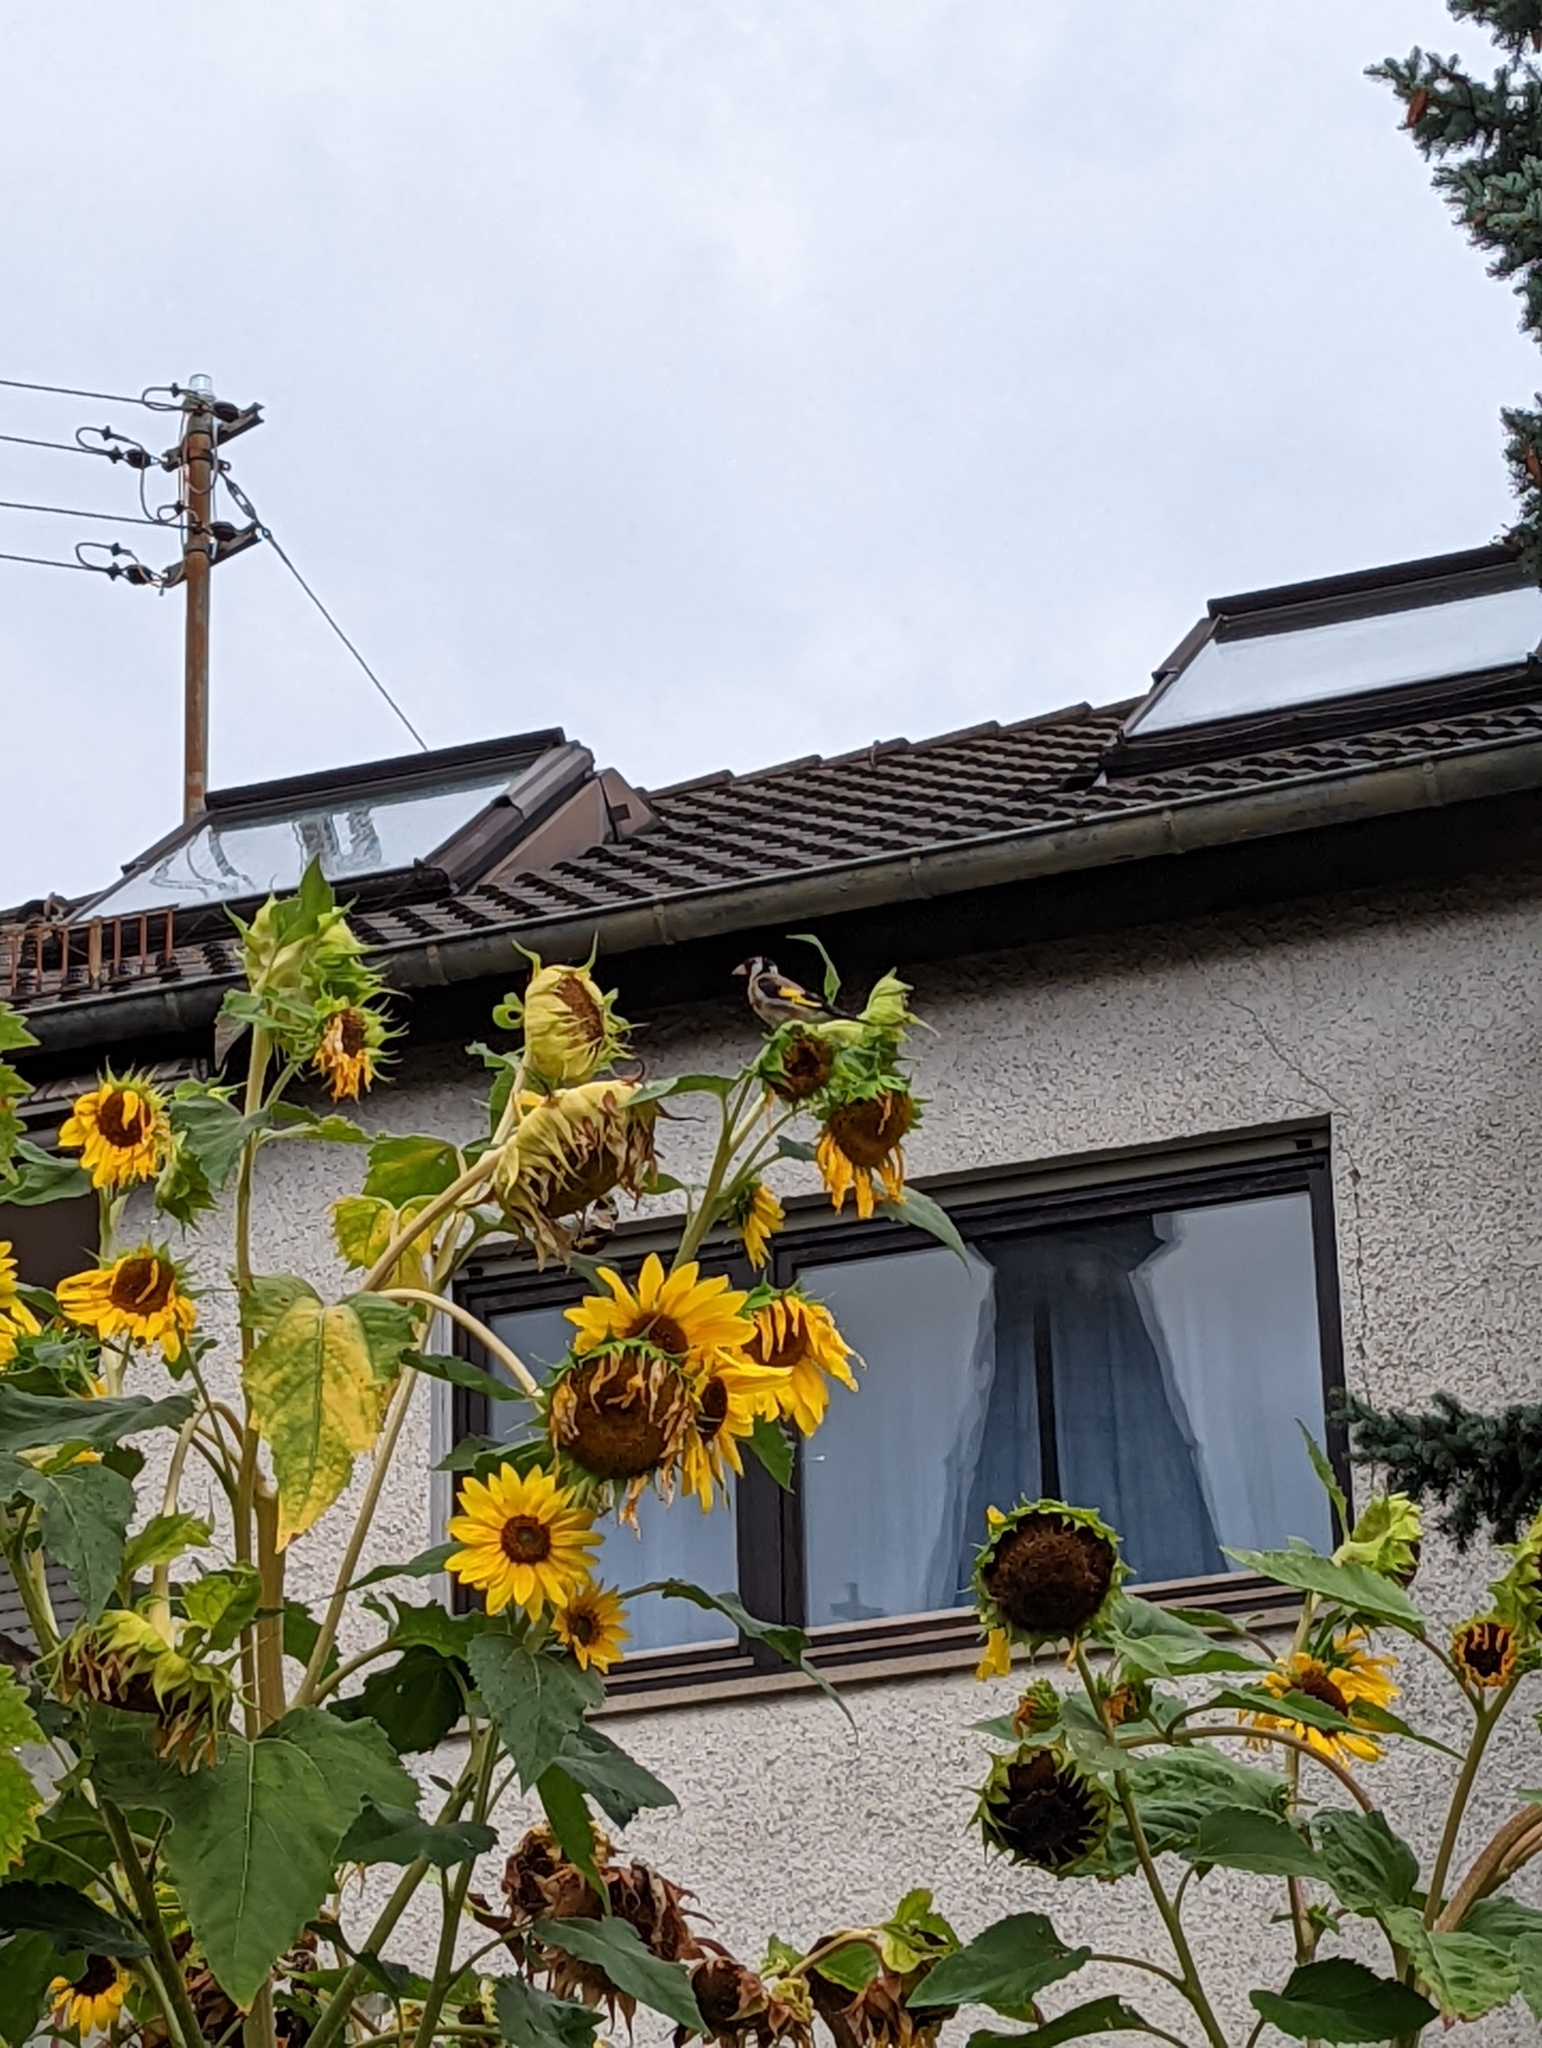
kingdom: Animalia
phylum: Chordata
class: Aves
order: Passeriformes
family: Fringillidae
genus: Carduelis
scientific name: Carduelis carduelis
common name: European goldfinch
